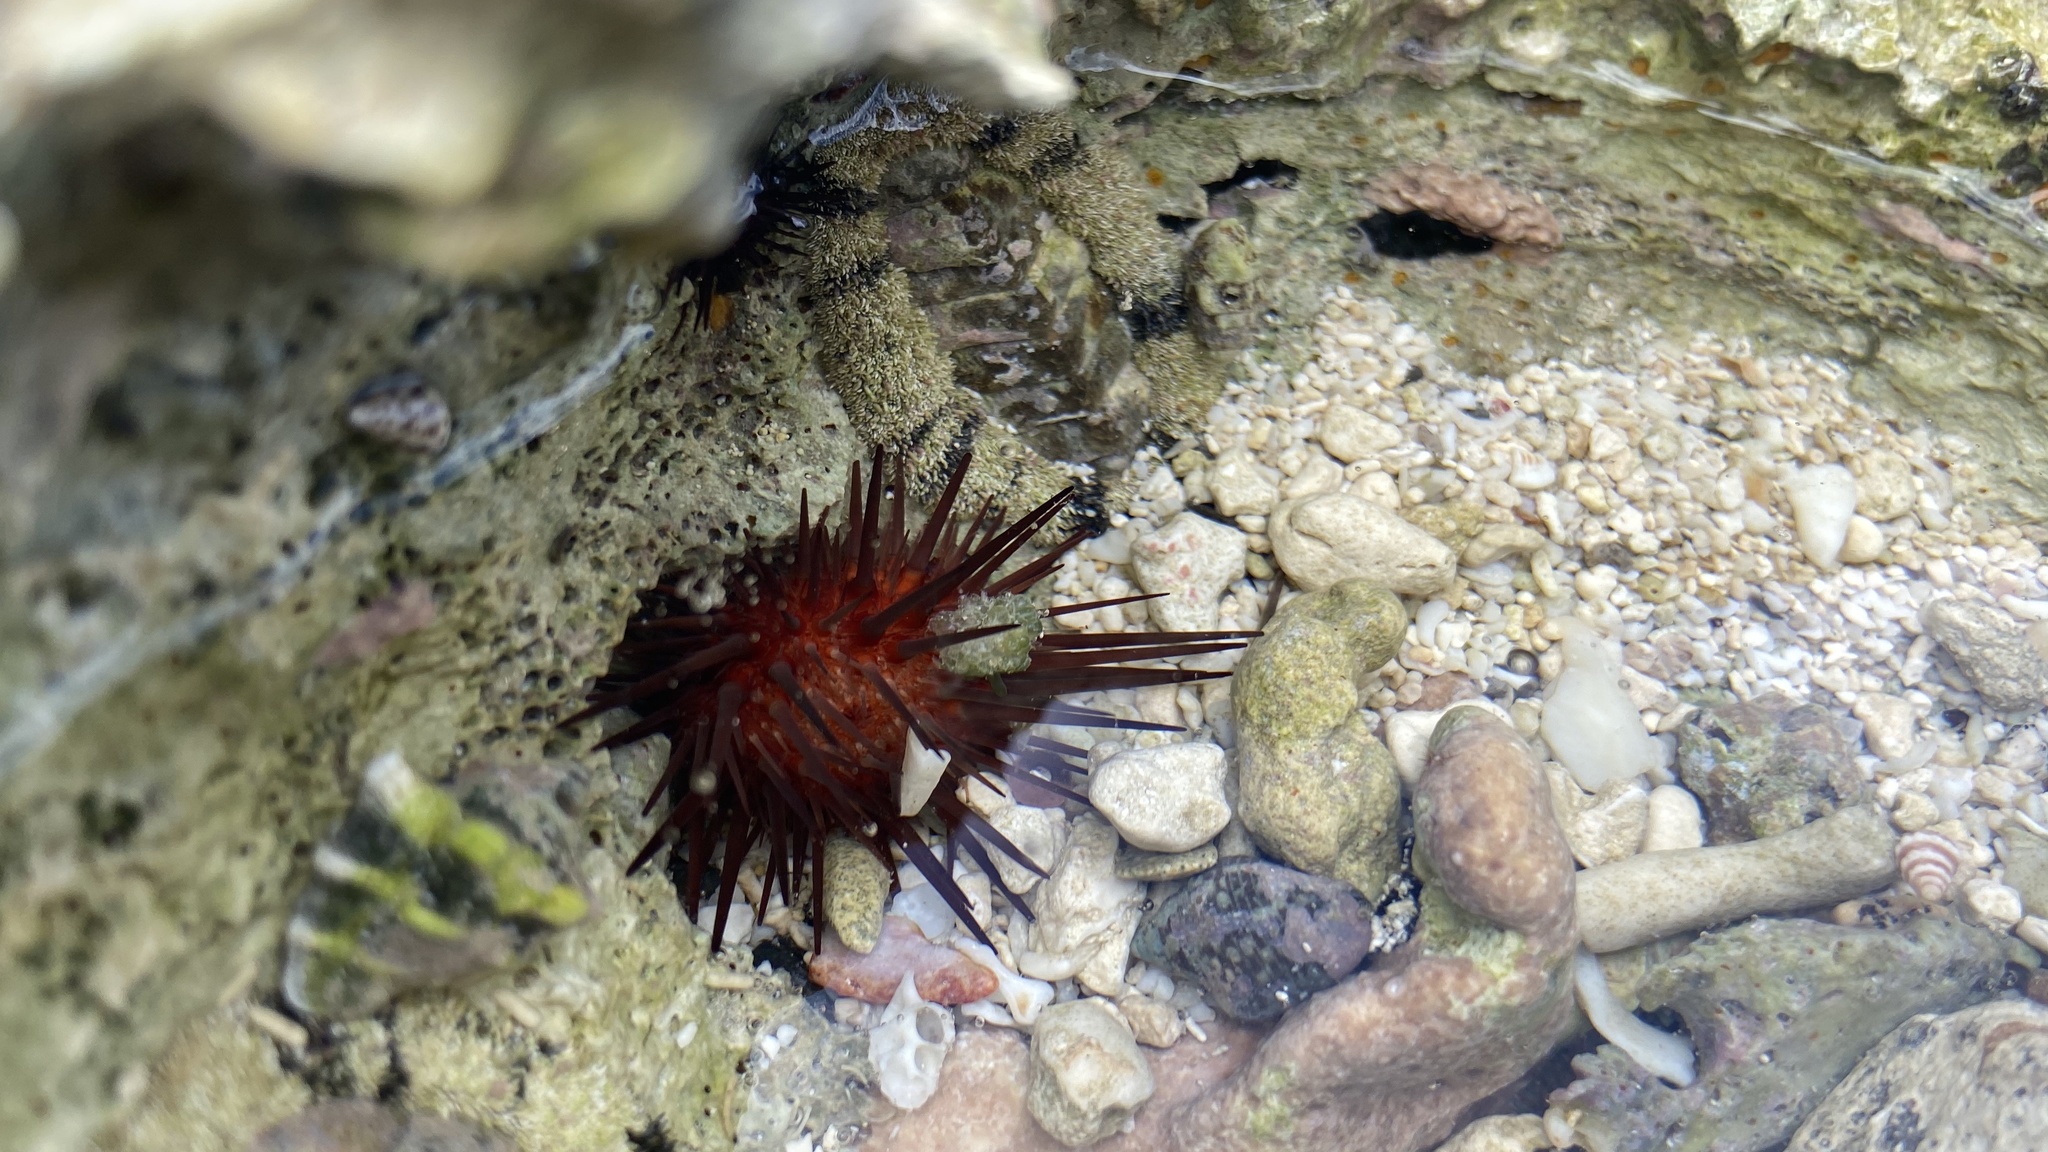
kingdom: Animalia
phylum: Echinodermata
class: Echinoidea
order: Camarodonta
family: Echinometridae
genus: Echinometra
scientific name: Echinometra lucunter
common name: Rock urchin
